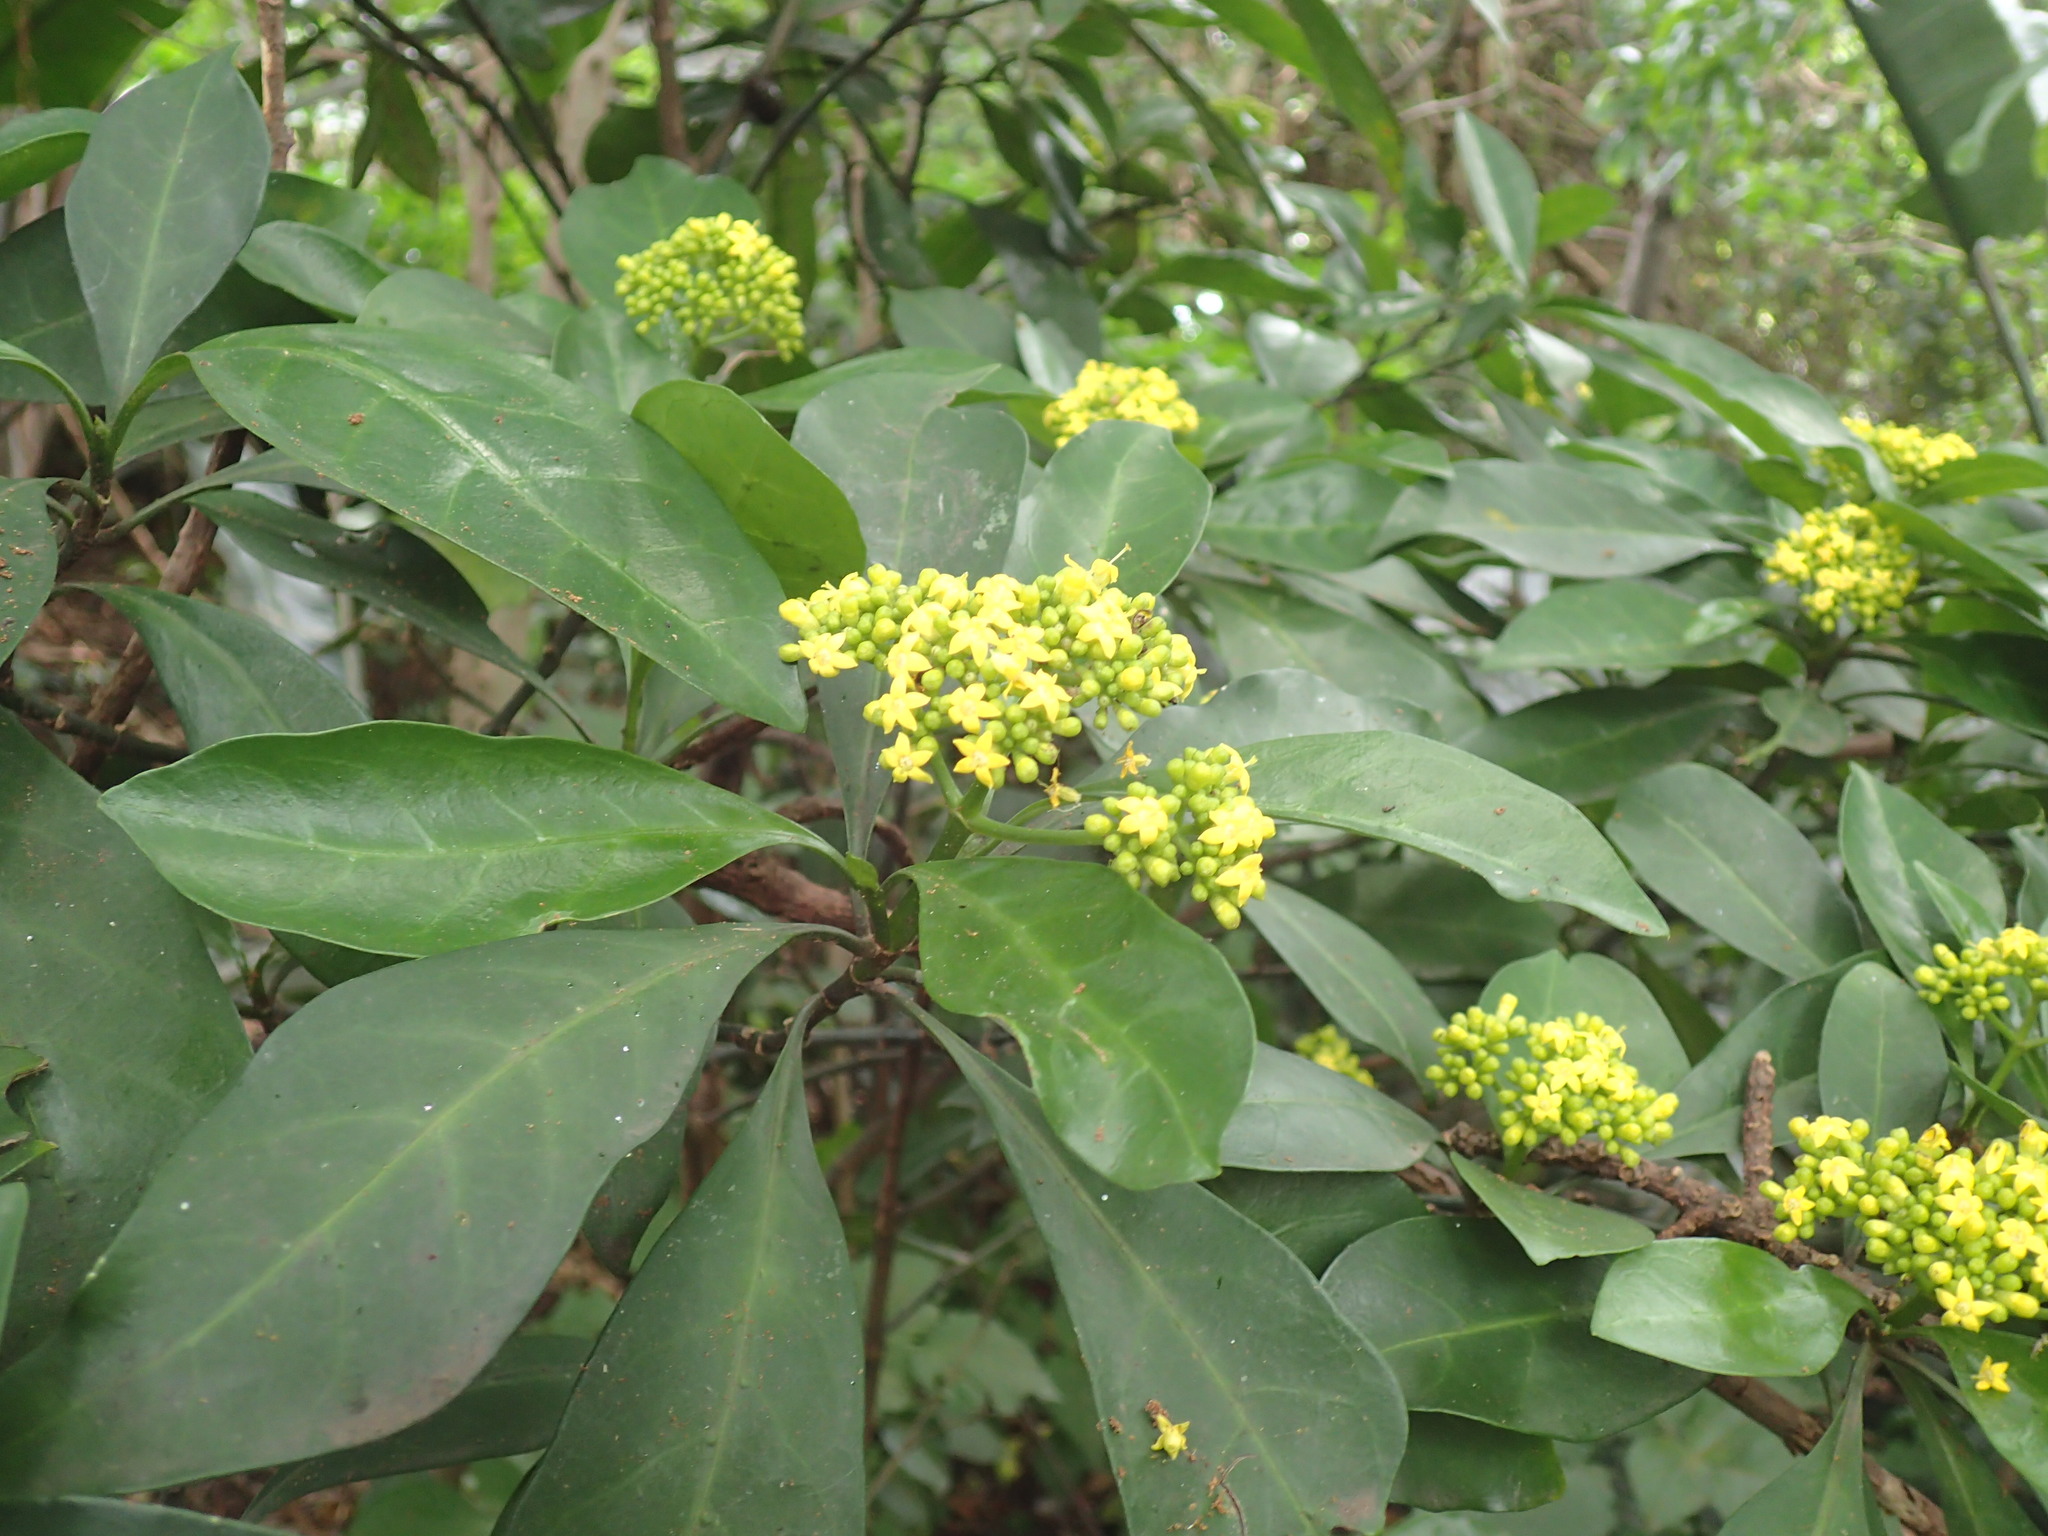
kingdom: Plantae
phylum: Tracheophyta
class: Magnoliopsida
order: Gentianales
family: Rubiaceae
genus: Psychotria
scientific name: Psychotria capensis
